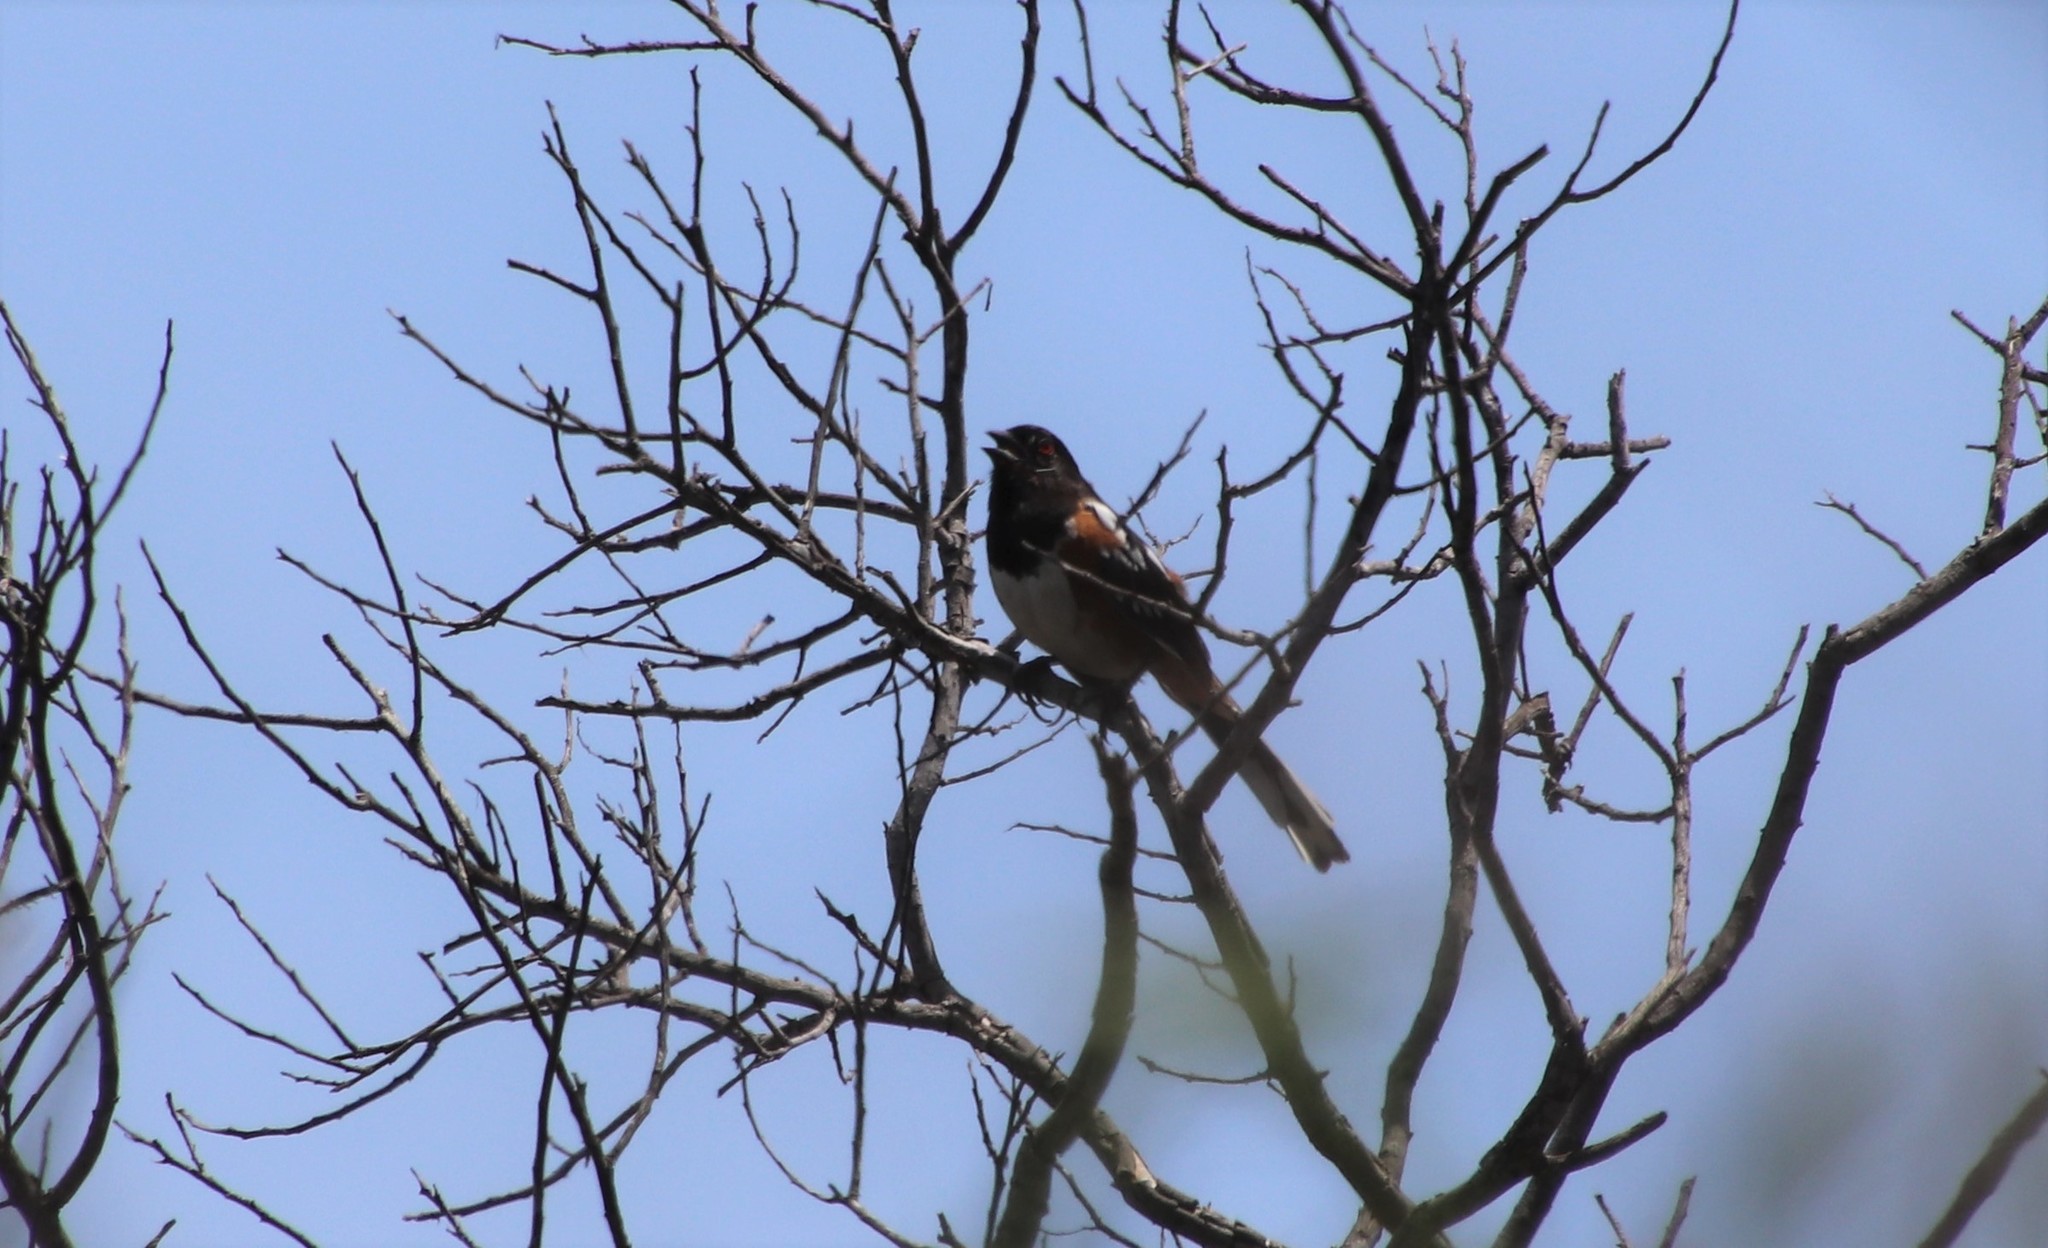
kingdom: Animalia
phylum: Chordata
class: Aves
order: Passeriformes
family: Passerellidae
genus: Pipilo
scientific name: Pipilo maculatus
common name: Spotted towhee
